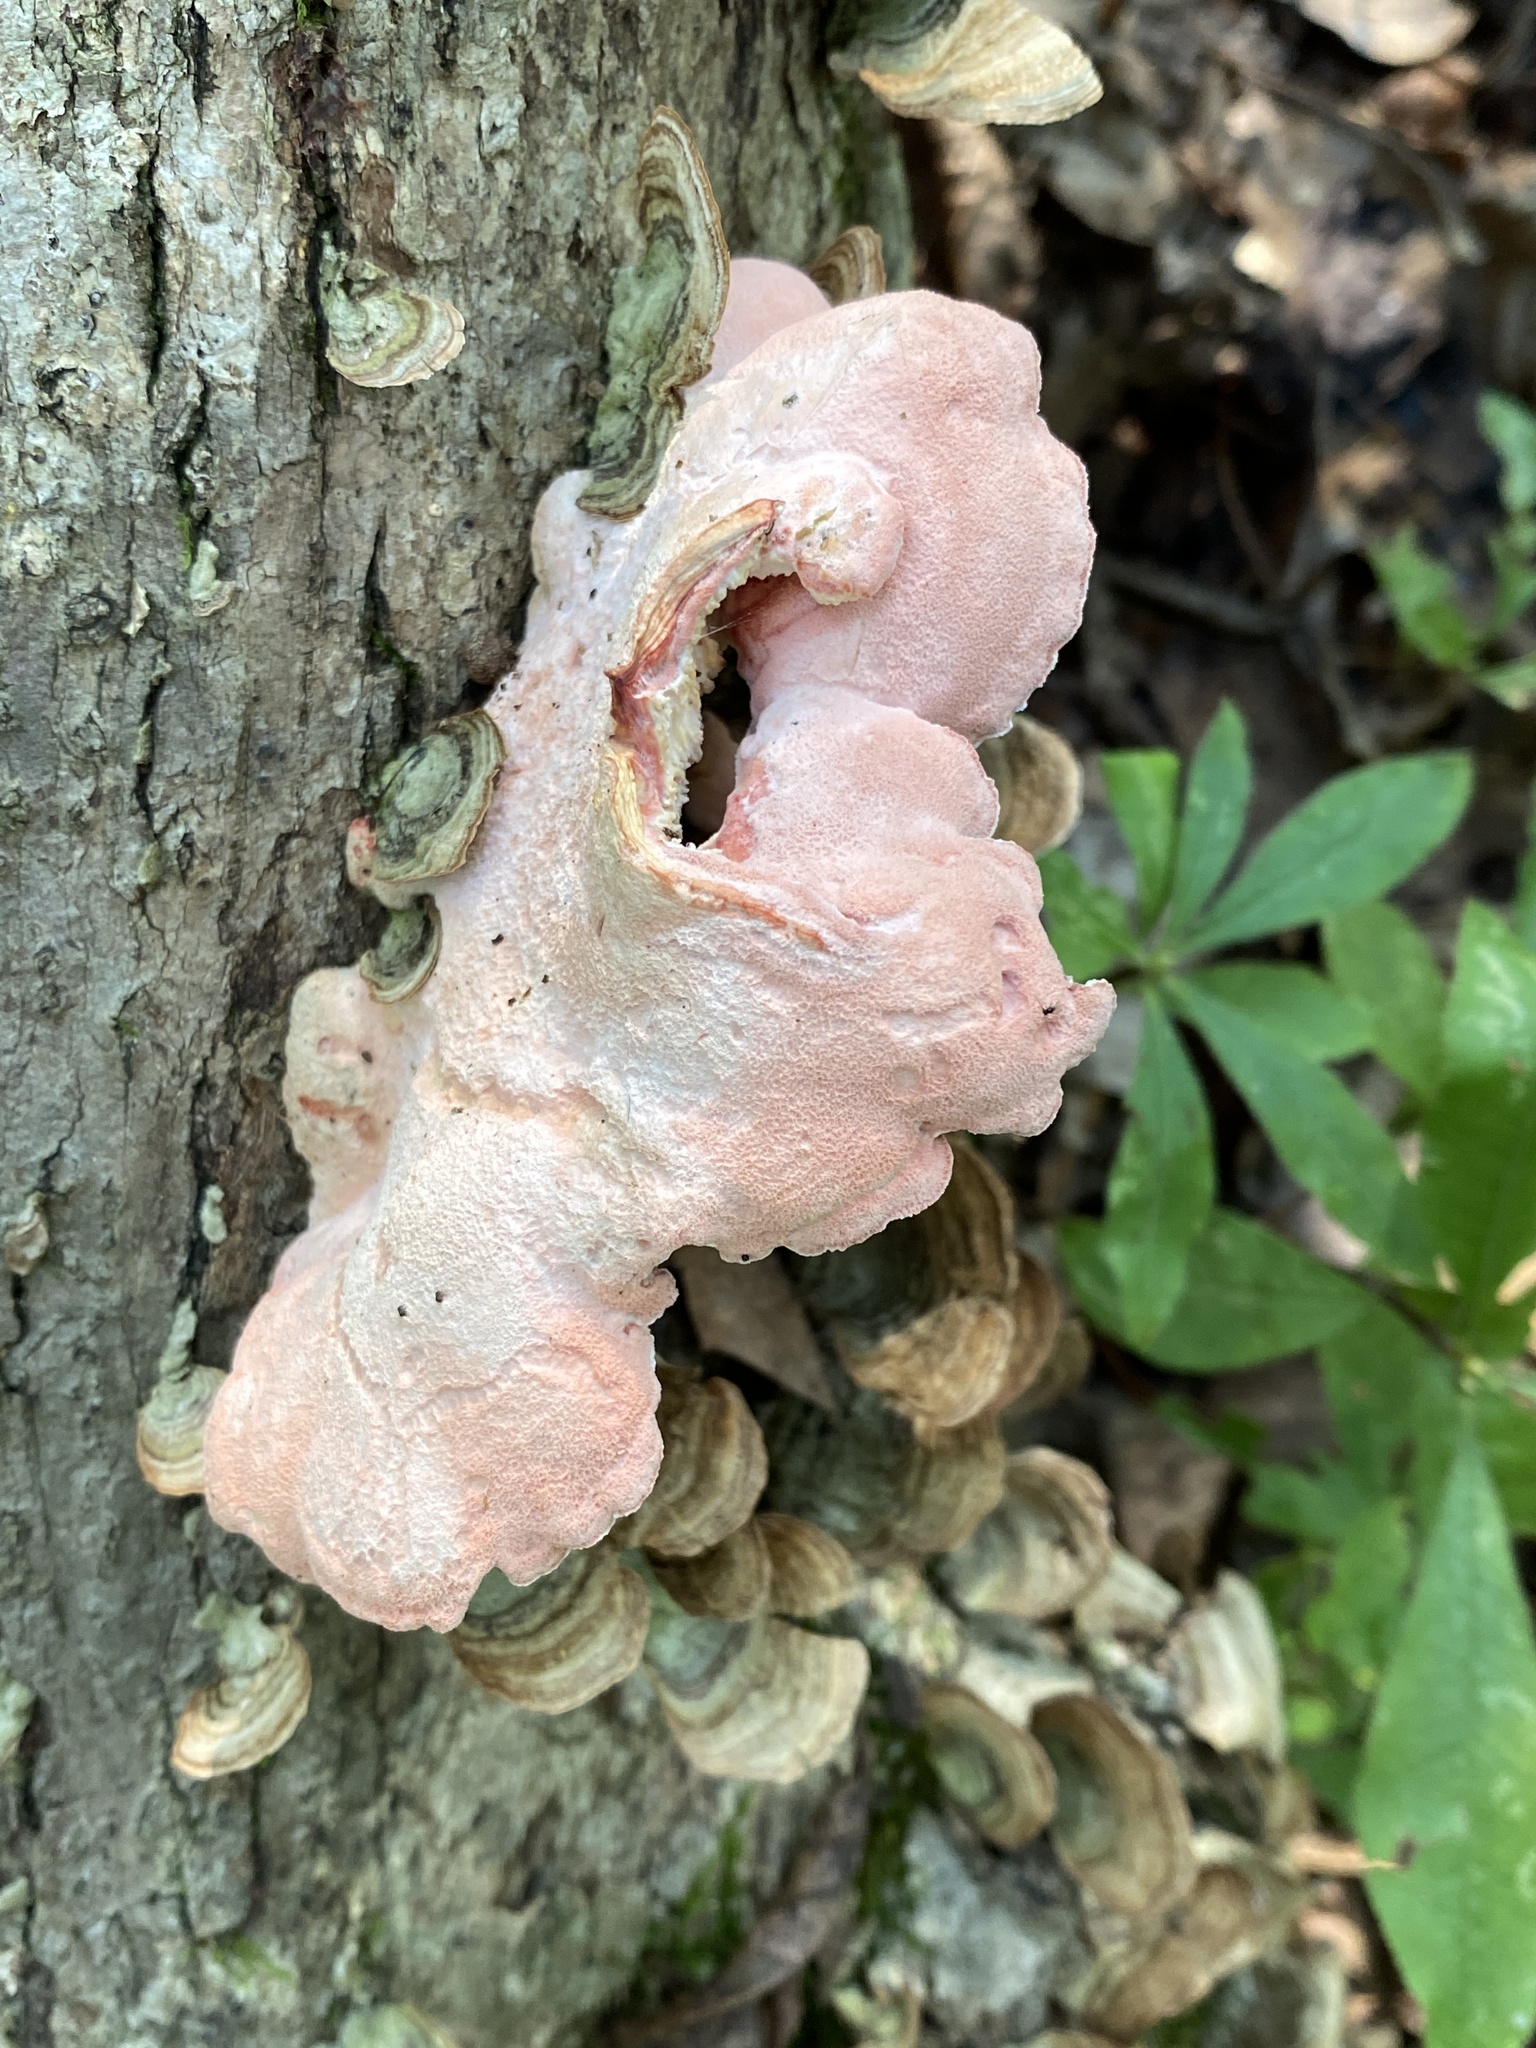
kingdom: Fungi
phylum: Basidiomycota
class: Agaricomycetes
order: Polyporales
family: Irpicaceae
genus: Byssomerulius
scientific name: Byssomerulius incarnatus
